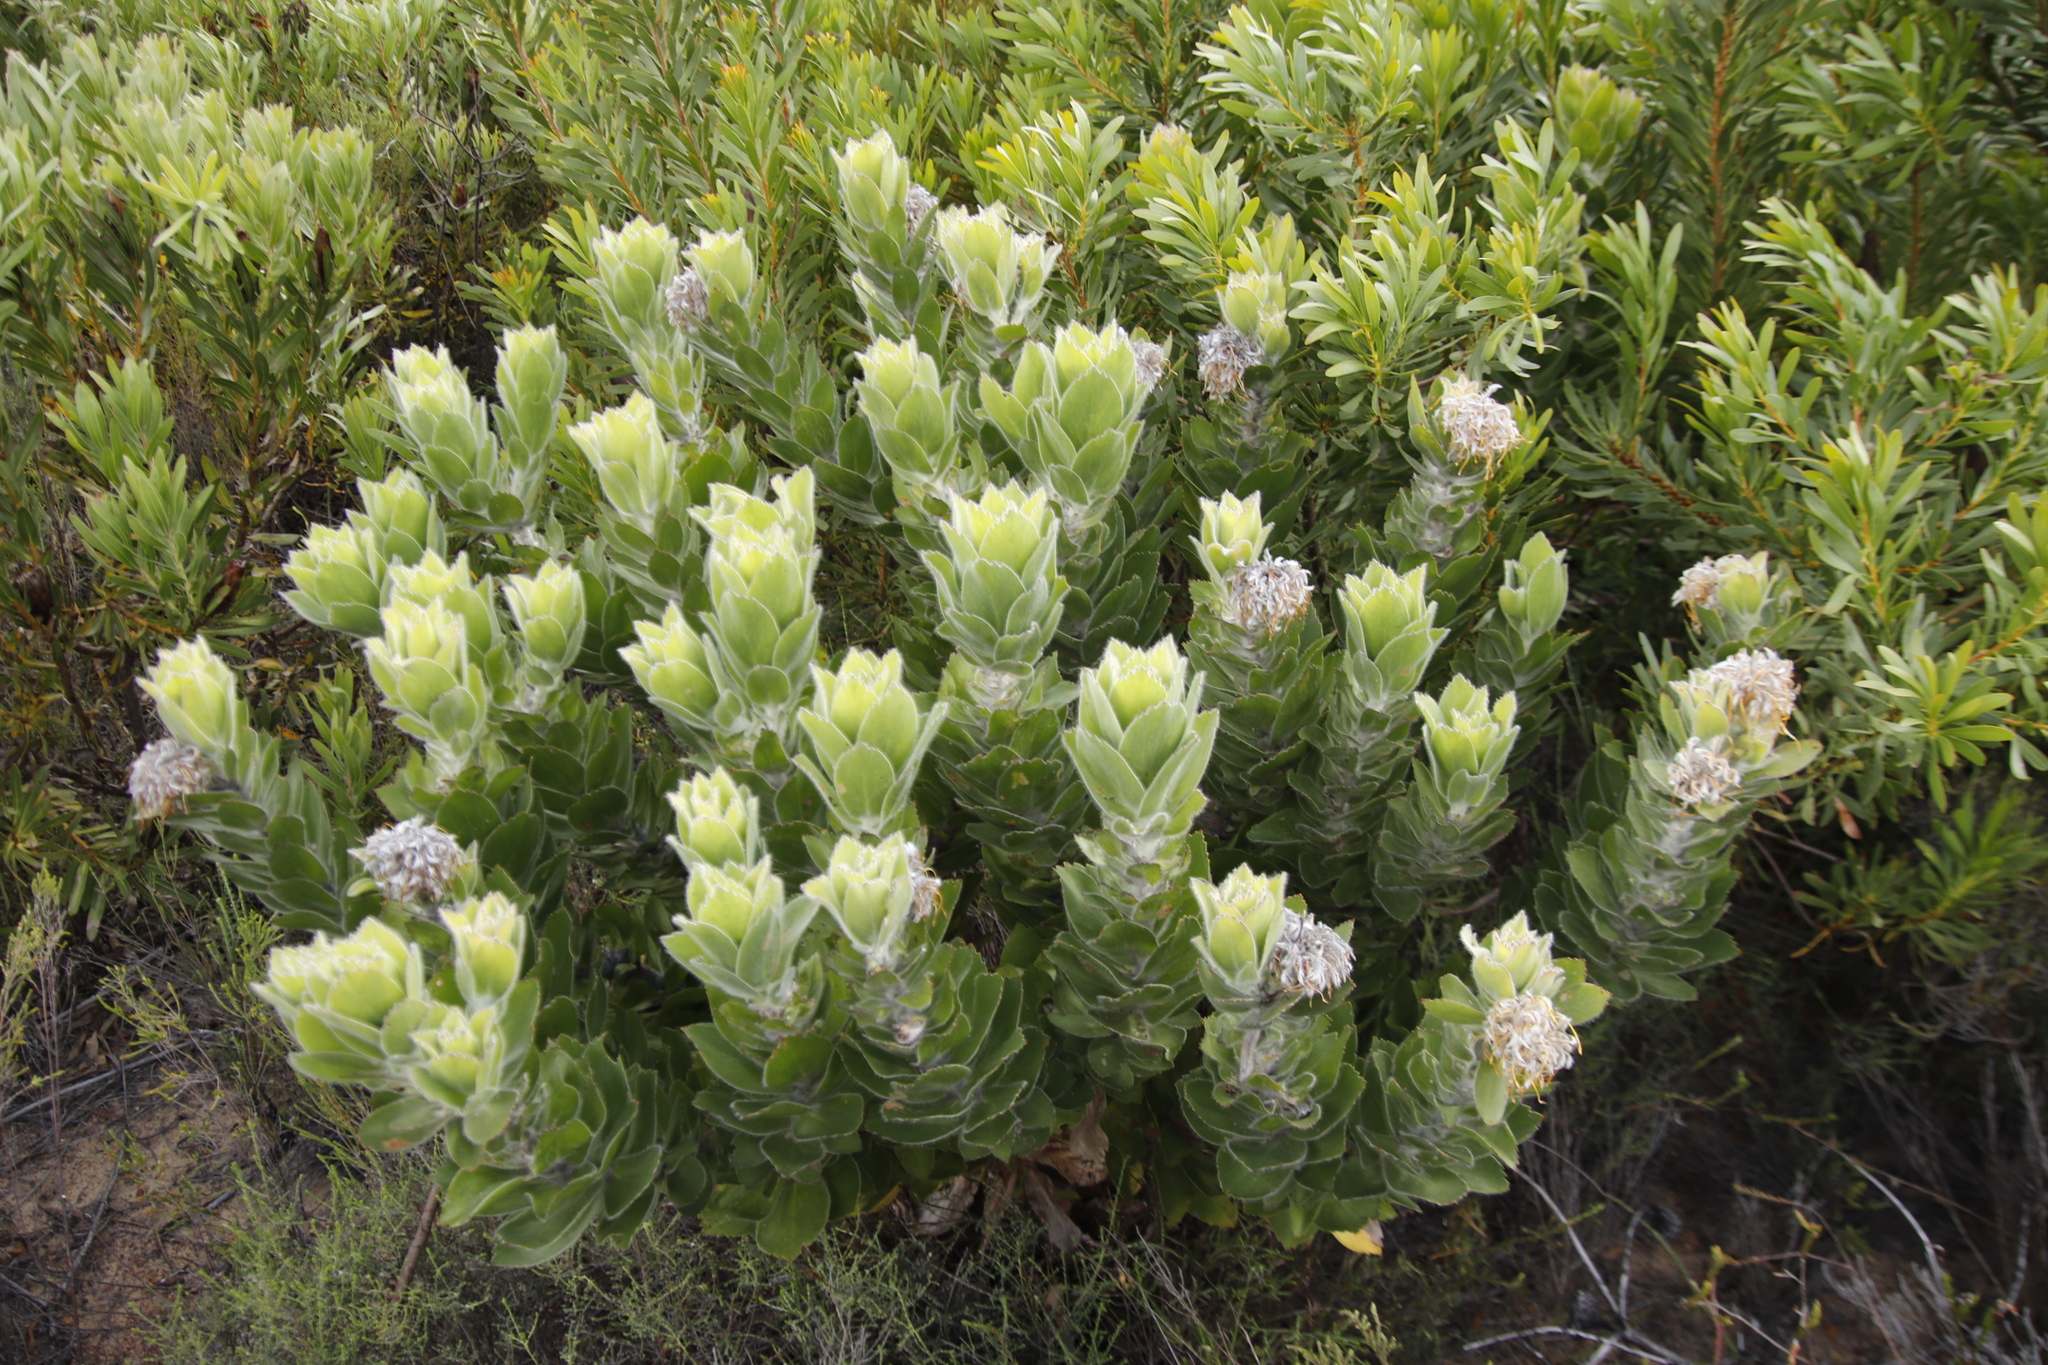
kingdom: Plantae
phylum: Tracheophyta
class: Magnoliopsida
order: Proteales
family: Proteaceae
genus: Leucospermum
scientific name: Leucospermum conocarpodendron
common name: Tree pincushion
